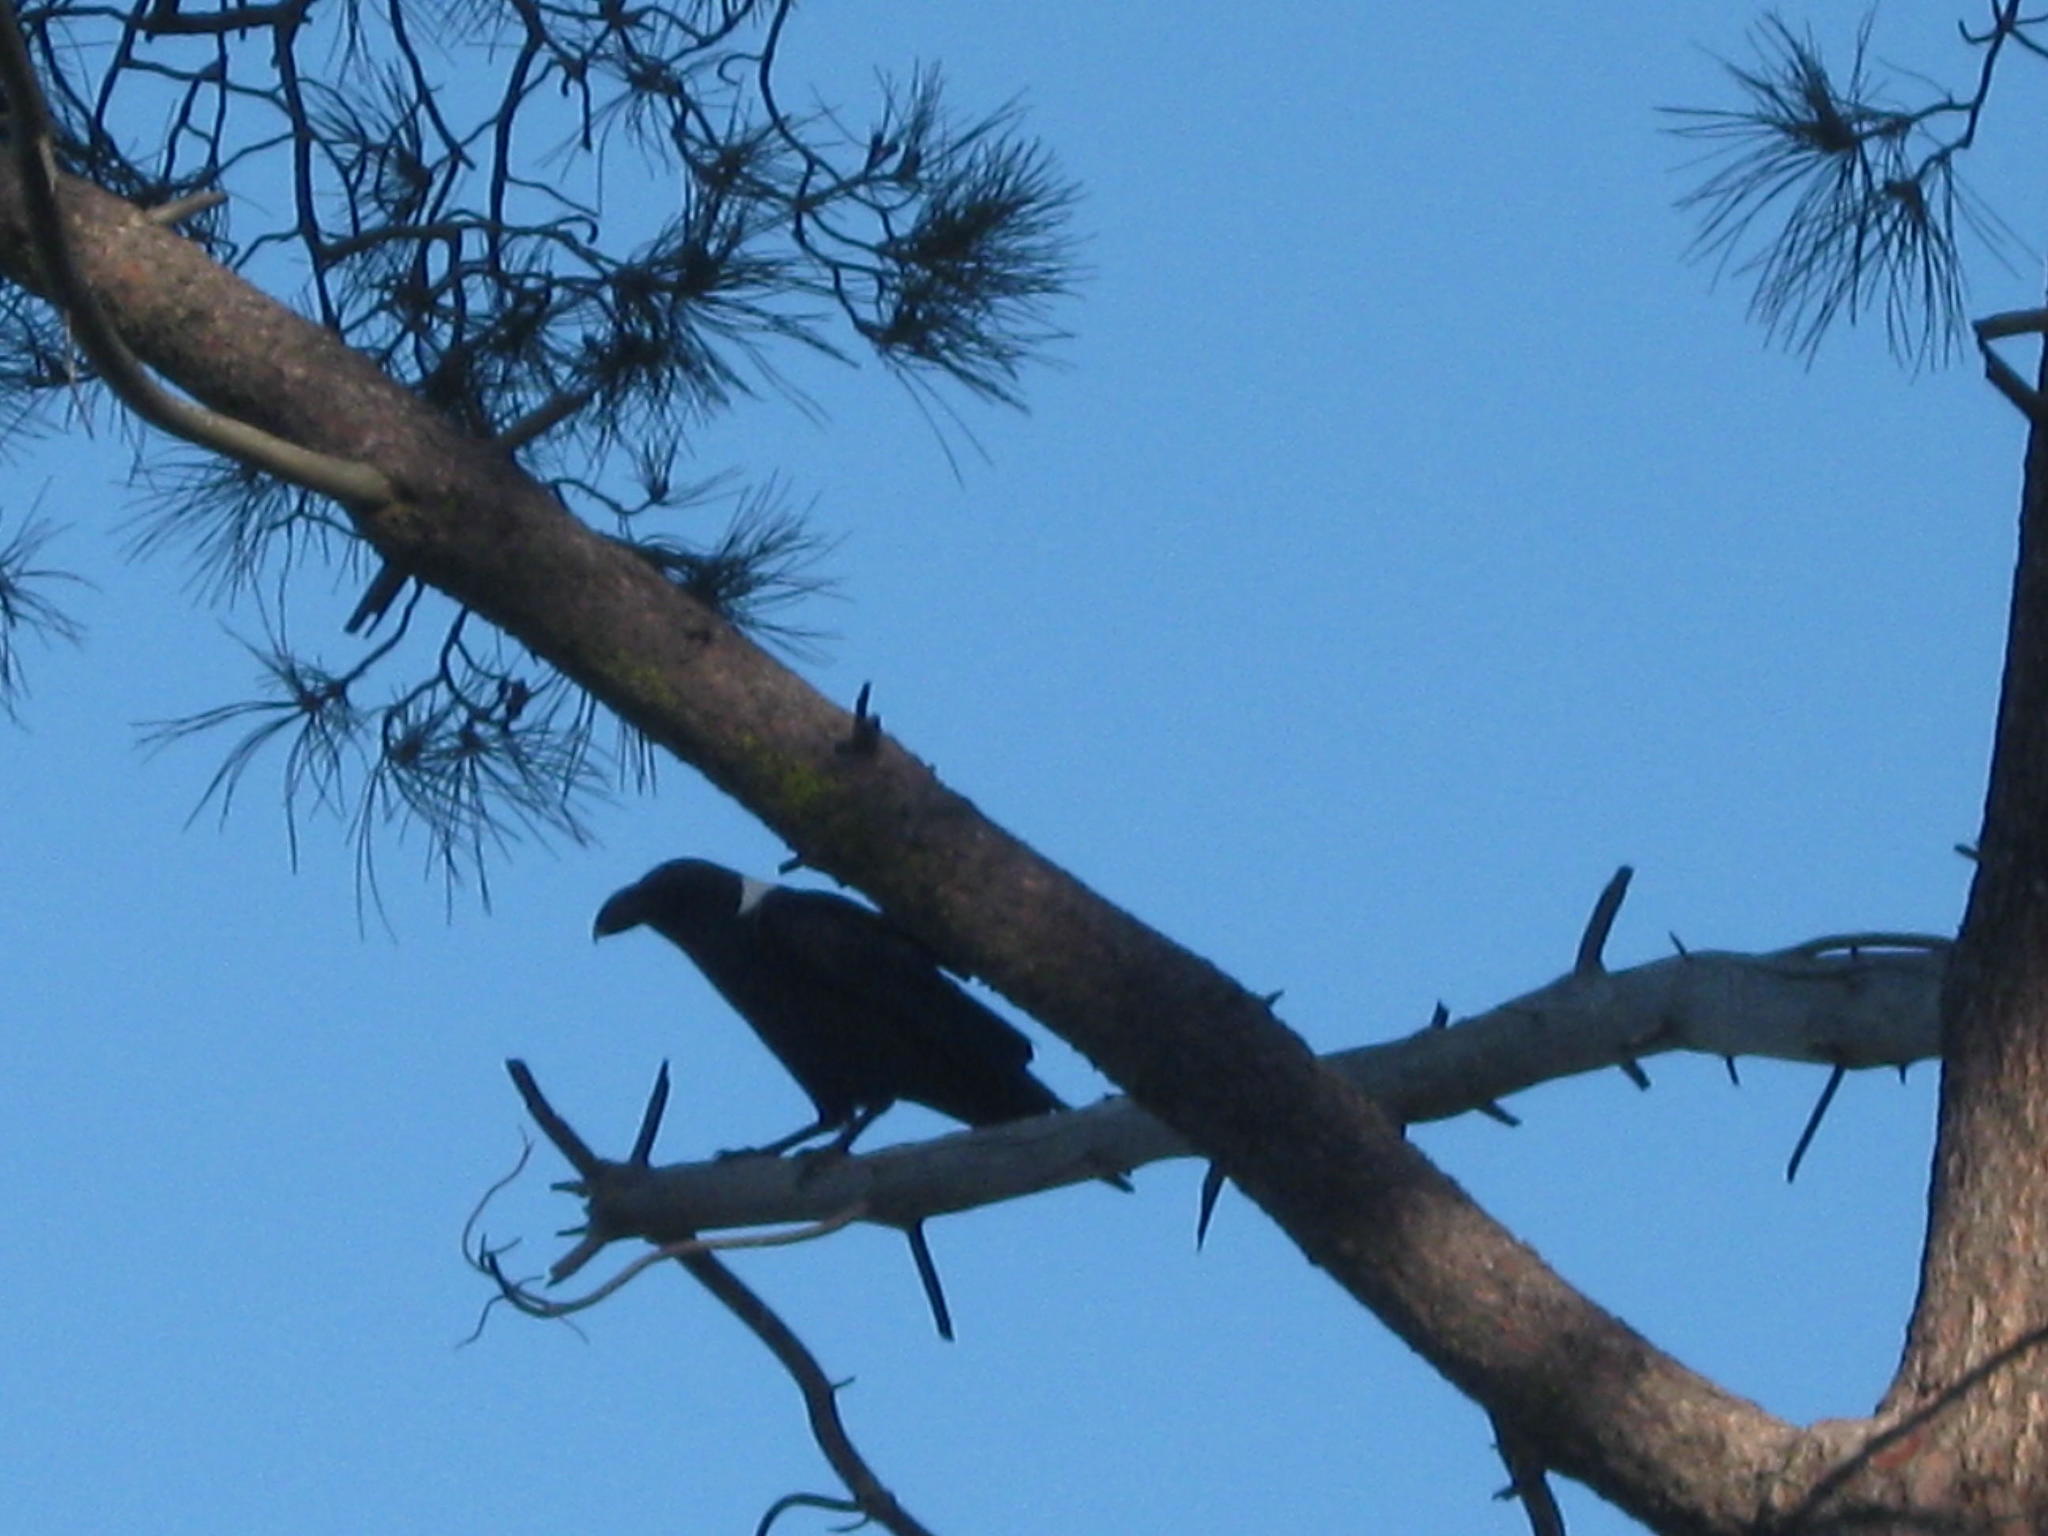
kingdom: Animalia
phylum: Chordata
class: Aves
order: Passeriformes
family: Corvidae
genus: Corvus
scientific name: Corvus albicollis
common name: White-necked raven
